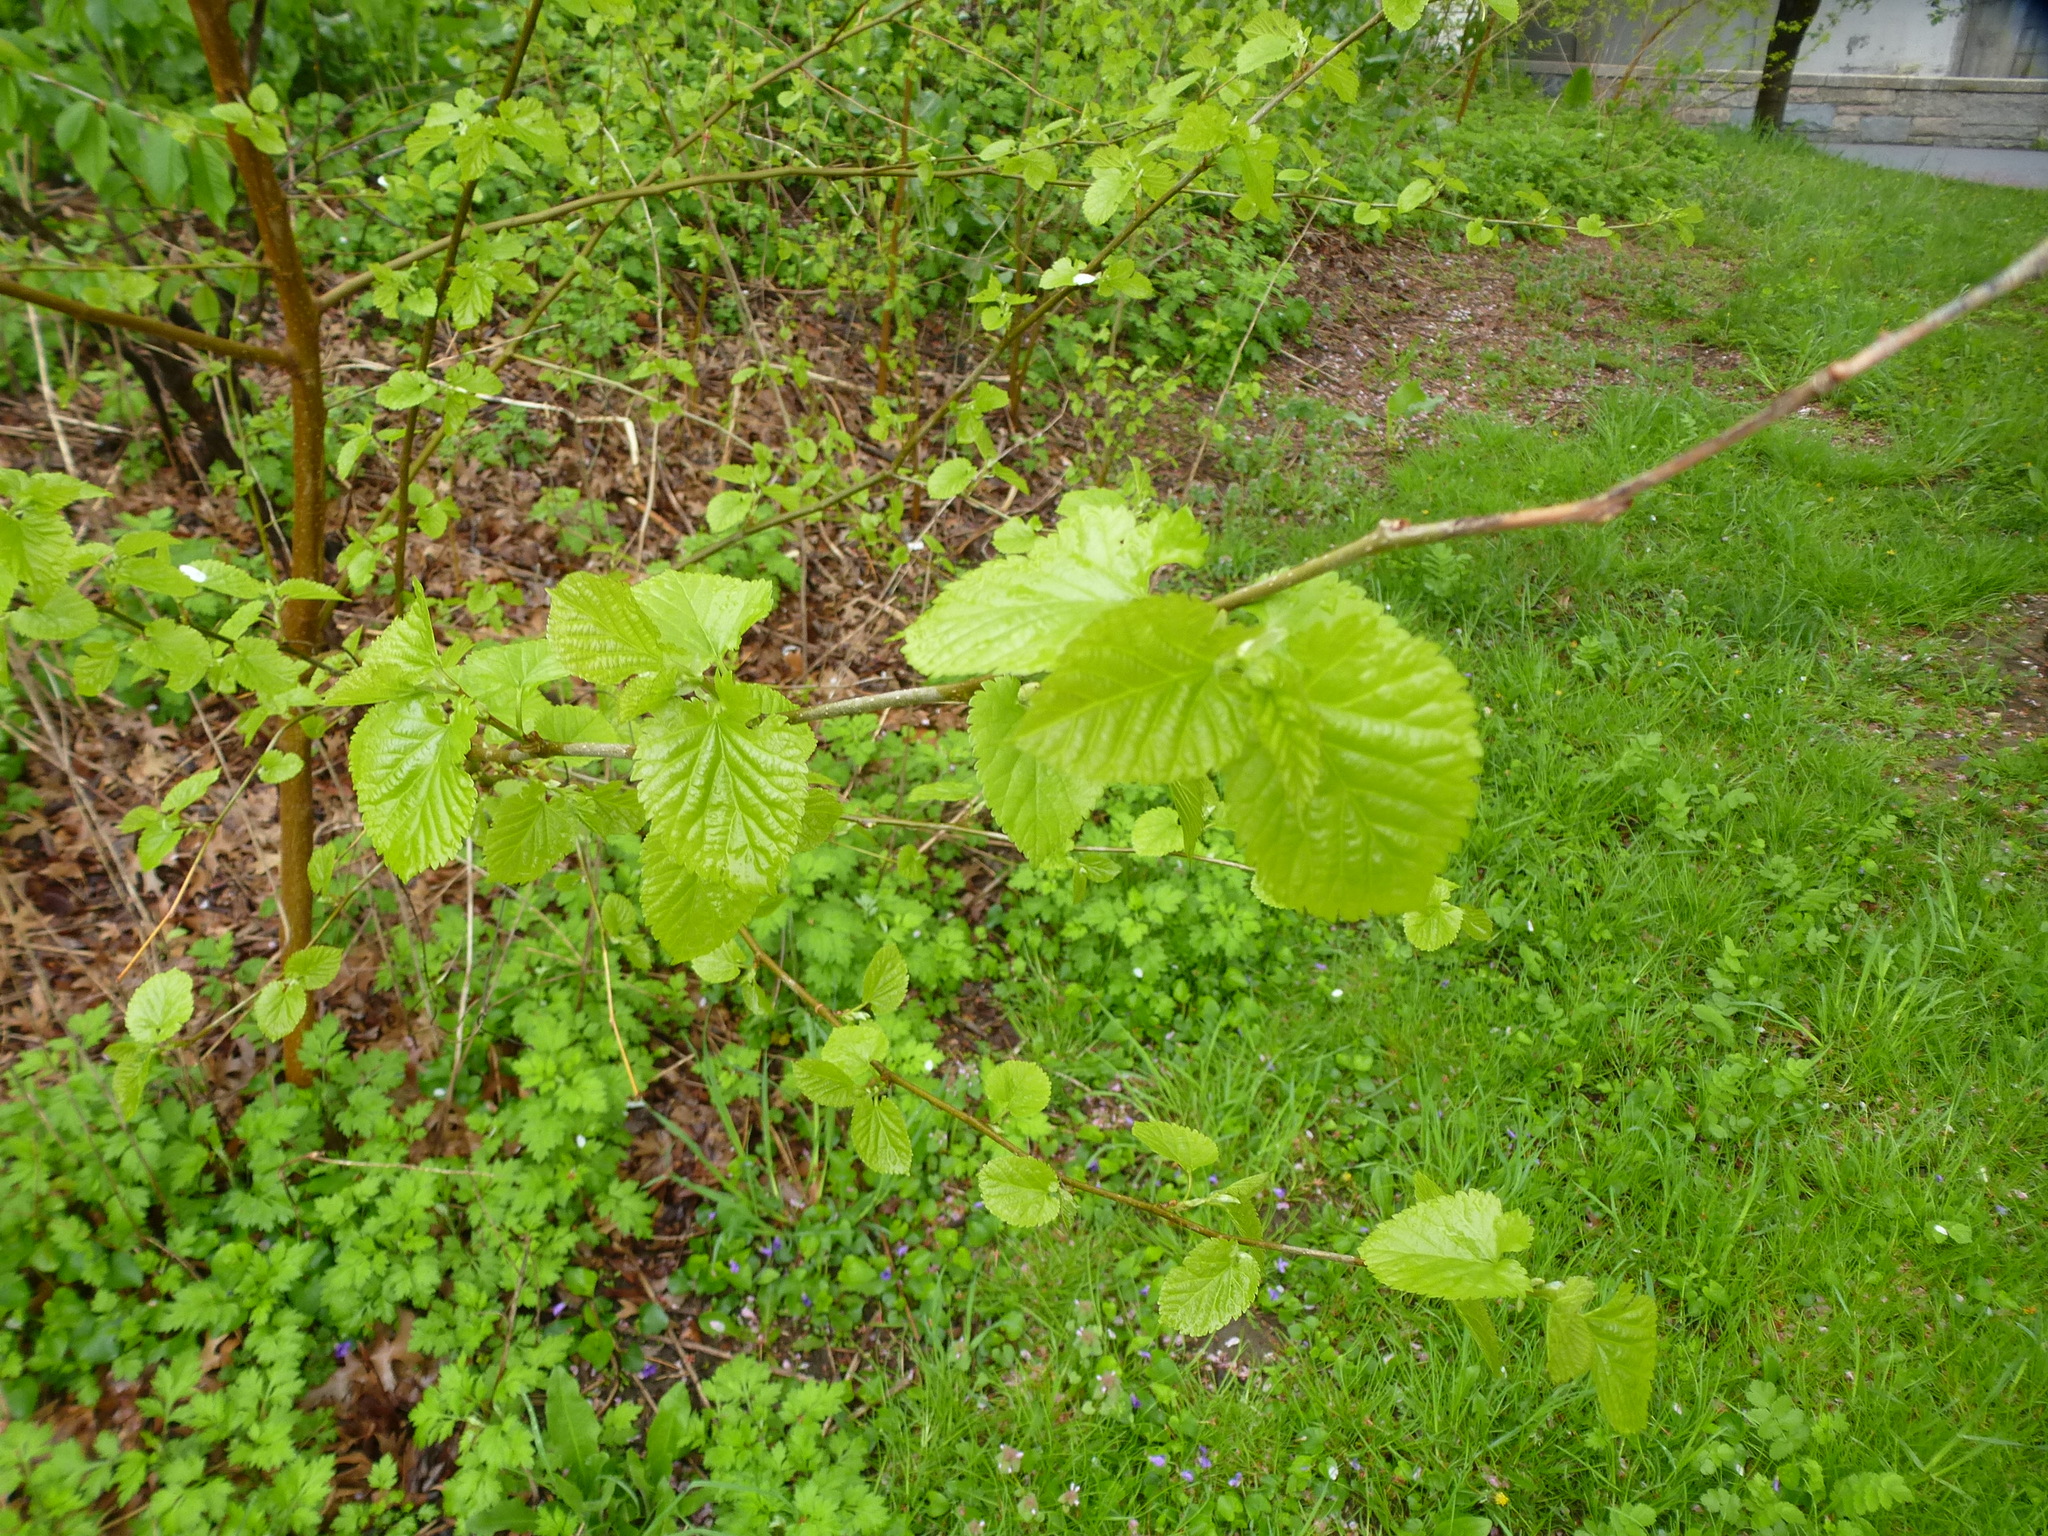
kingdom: Plantae
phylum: Tracheophyta
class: Magnoliopsida
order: Rosales
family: Moraceae
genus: Morus
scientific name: Morus alba
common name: White mulberry
